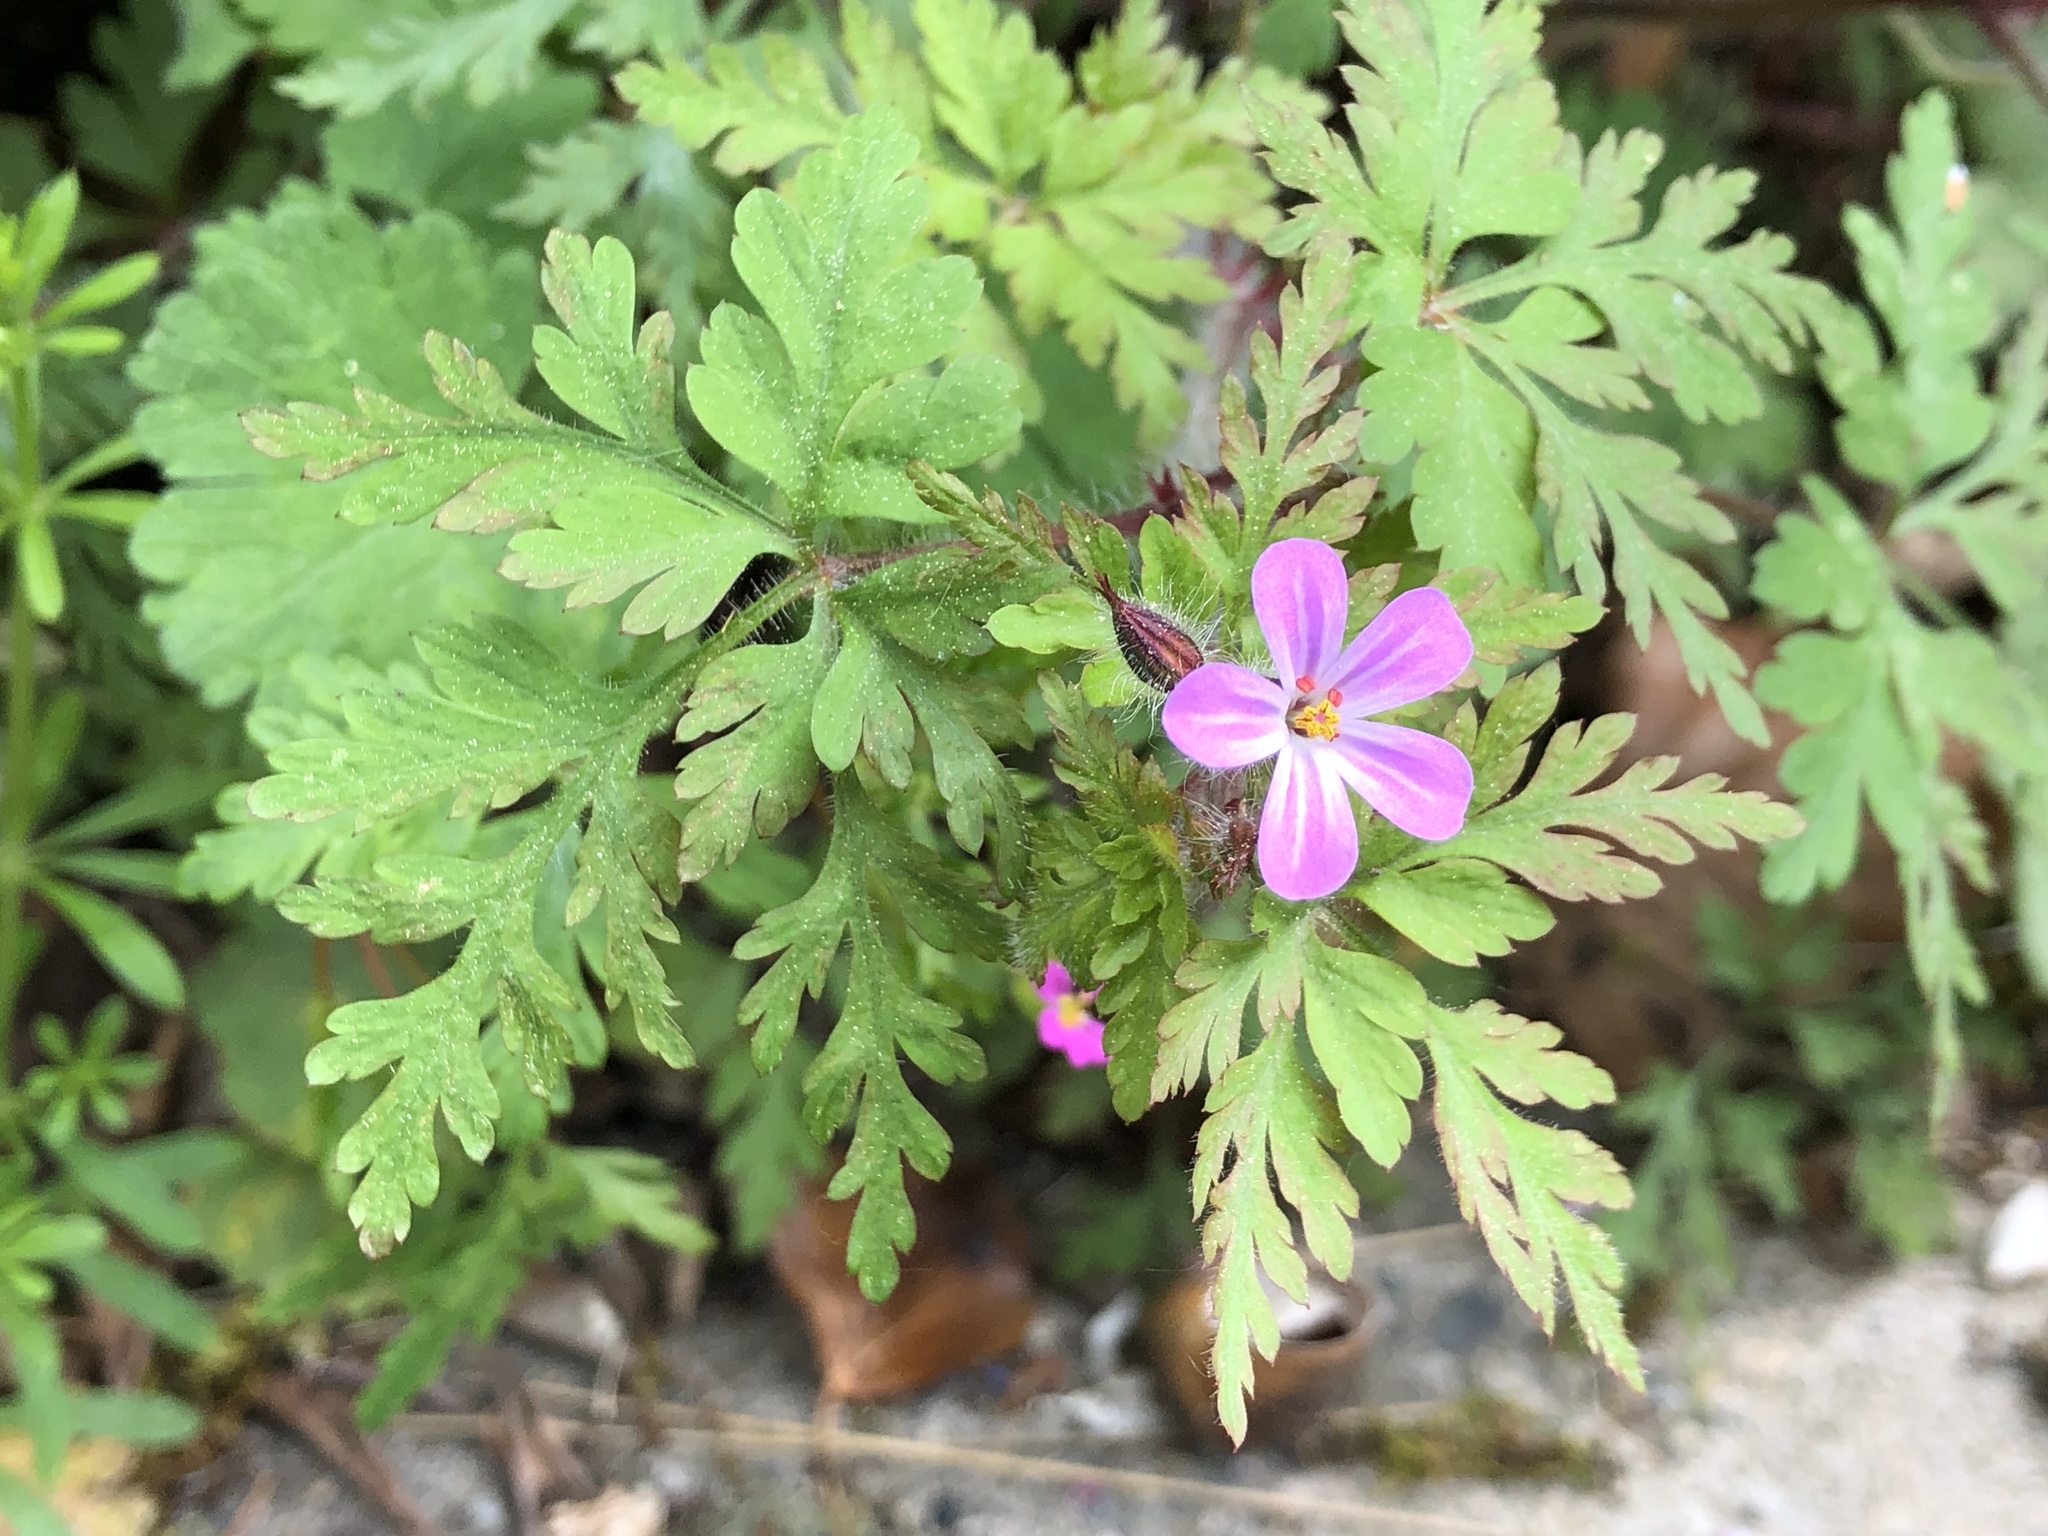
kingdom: Plantae
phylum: Tracheophyta
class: Magnoliopsida
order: Geraniales
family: Geraniaceae
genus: Geranium
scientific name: Geranium robertianum
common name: Herb-robert
